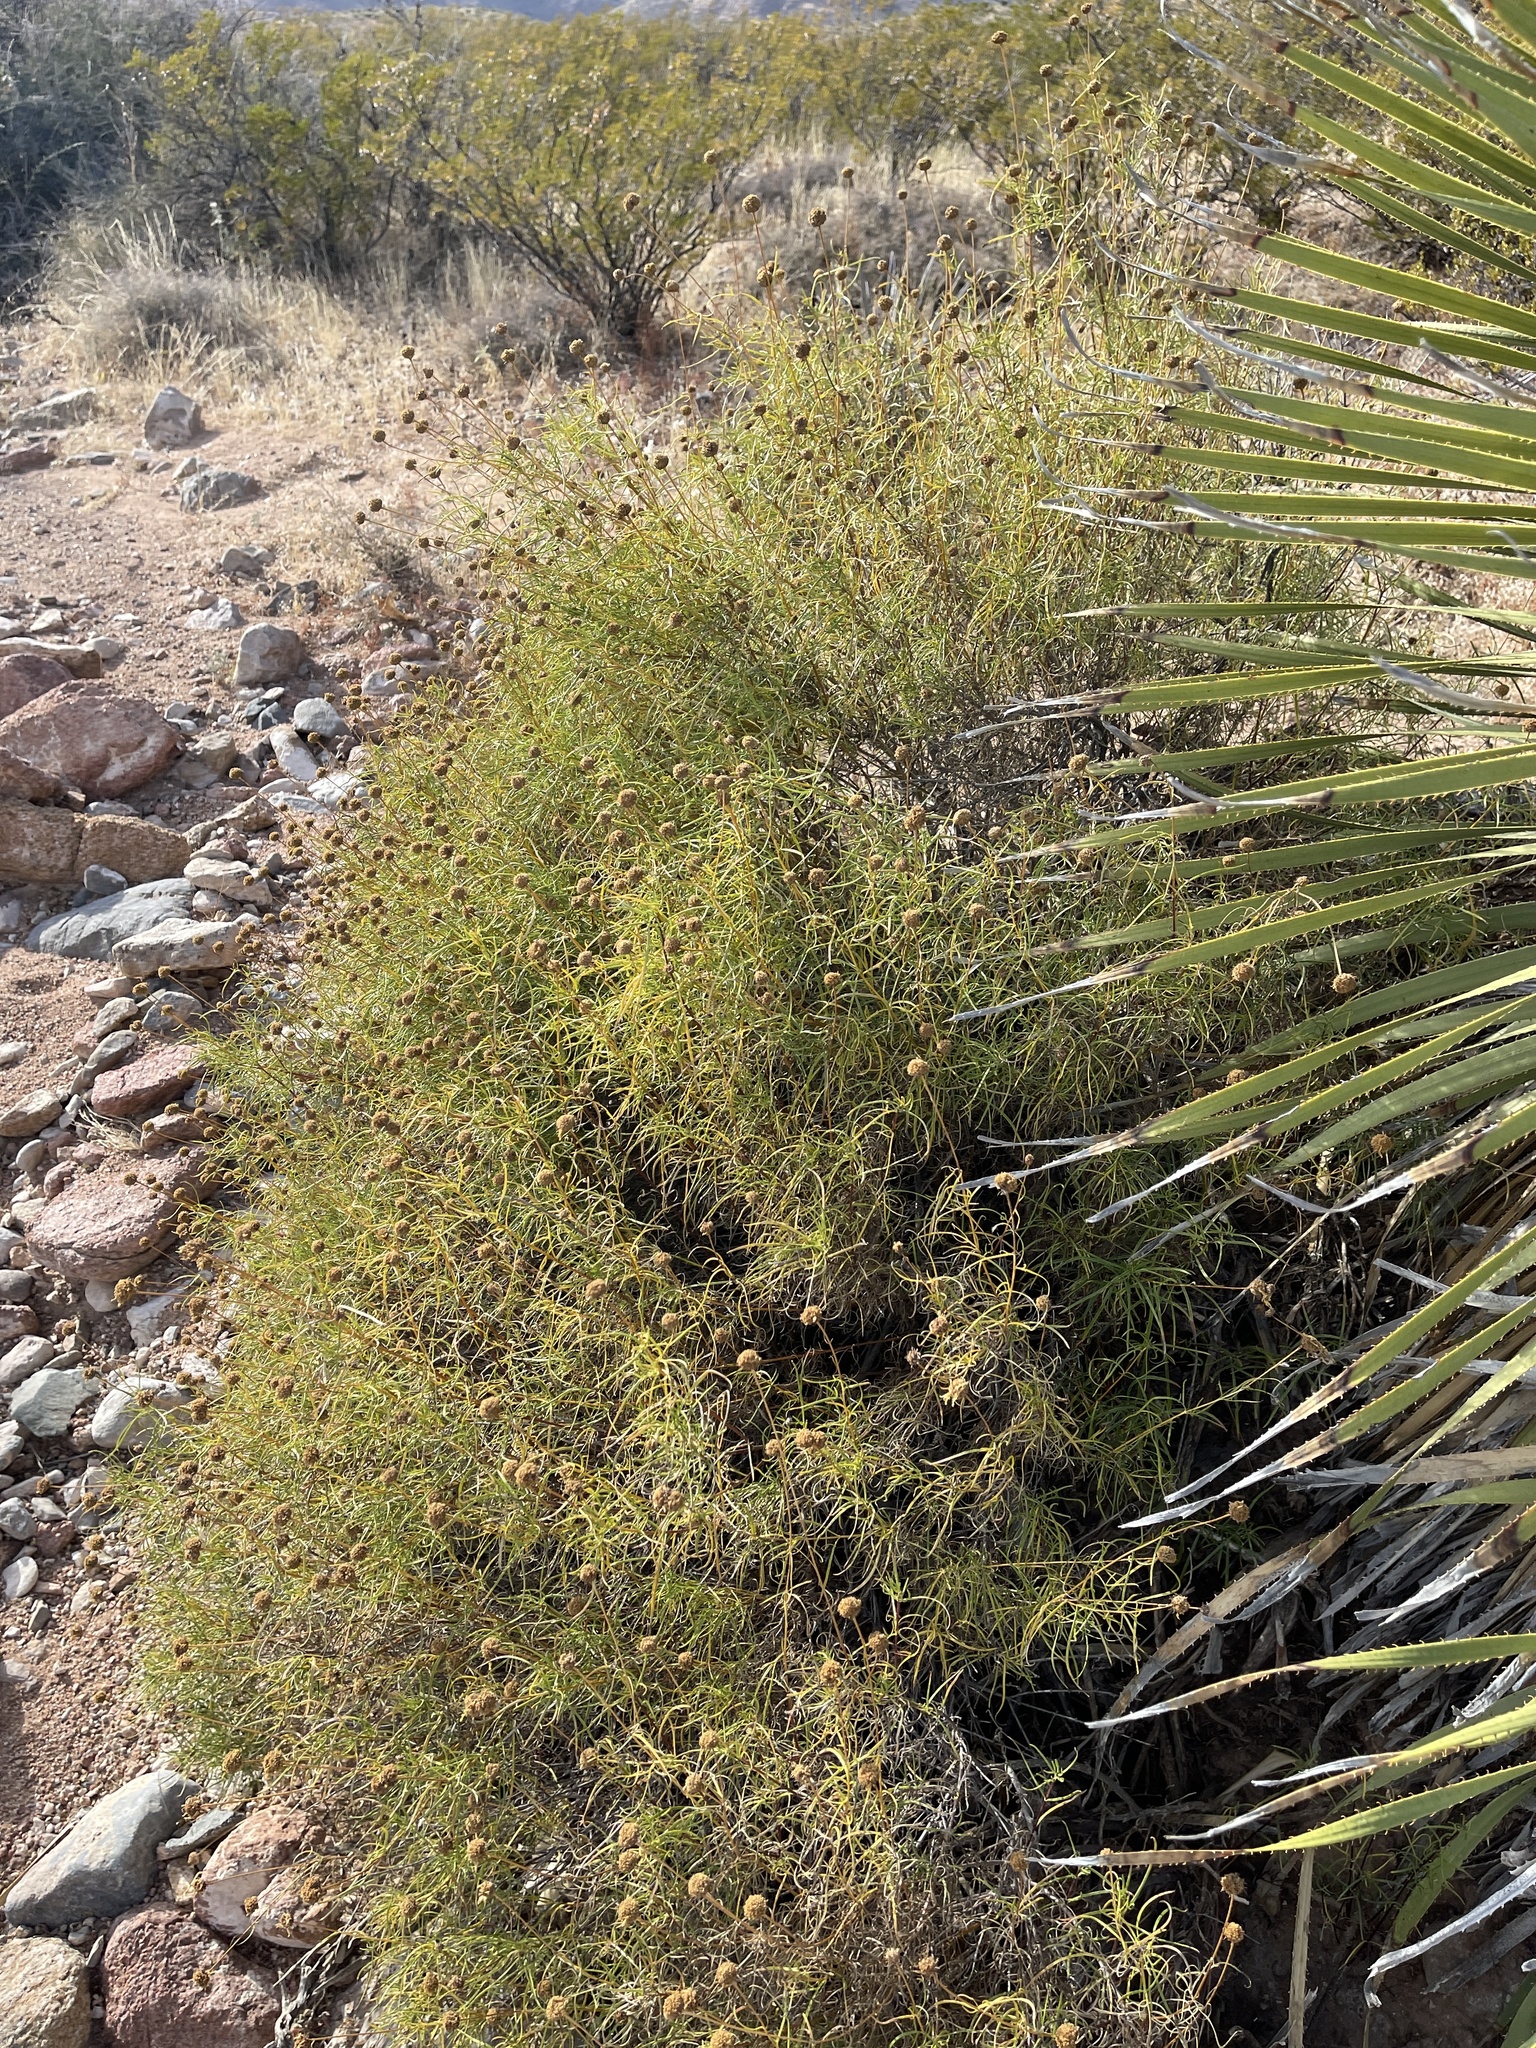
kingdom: Plantae
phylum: Tracheophyta
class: Magnoliopsida
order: Asterales
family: Asteraceae
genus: Sidneya
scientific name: Sidneya tenuifolia
